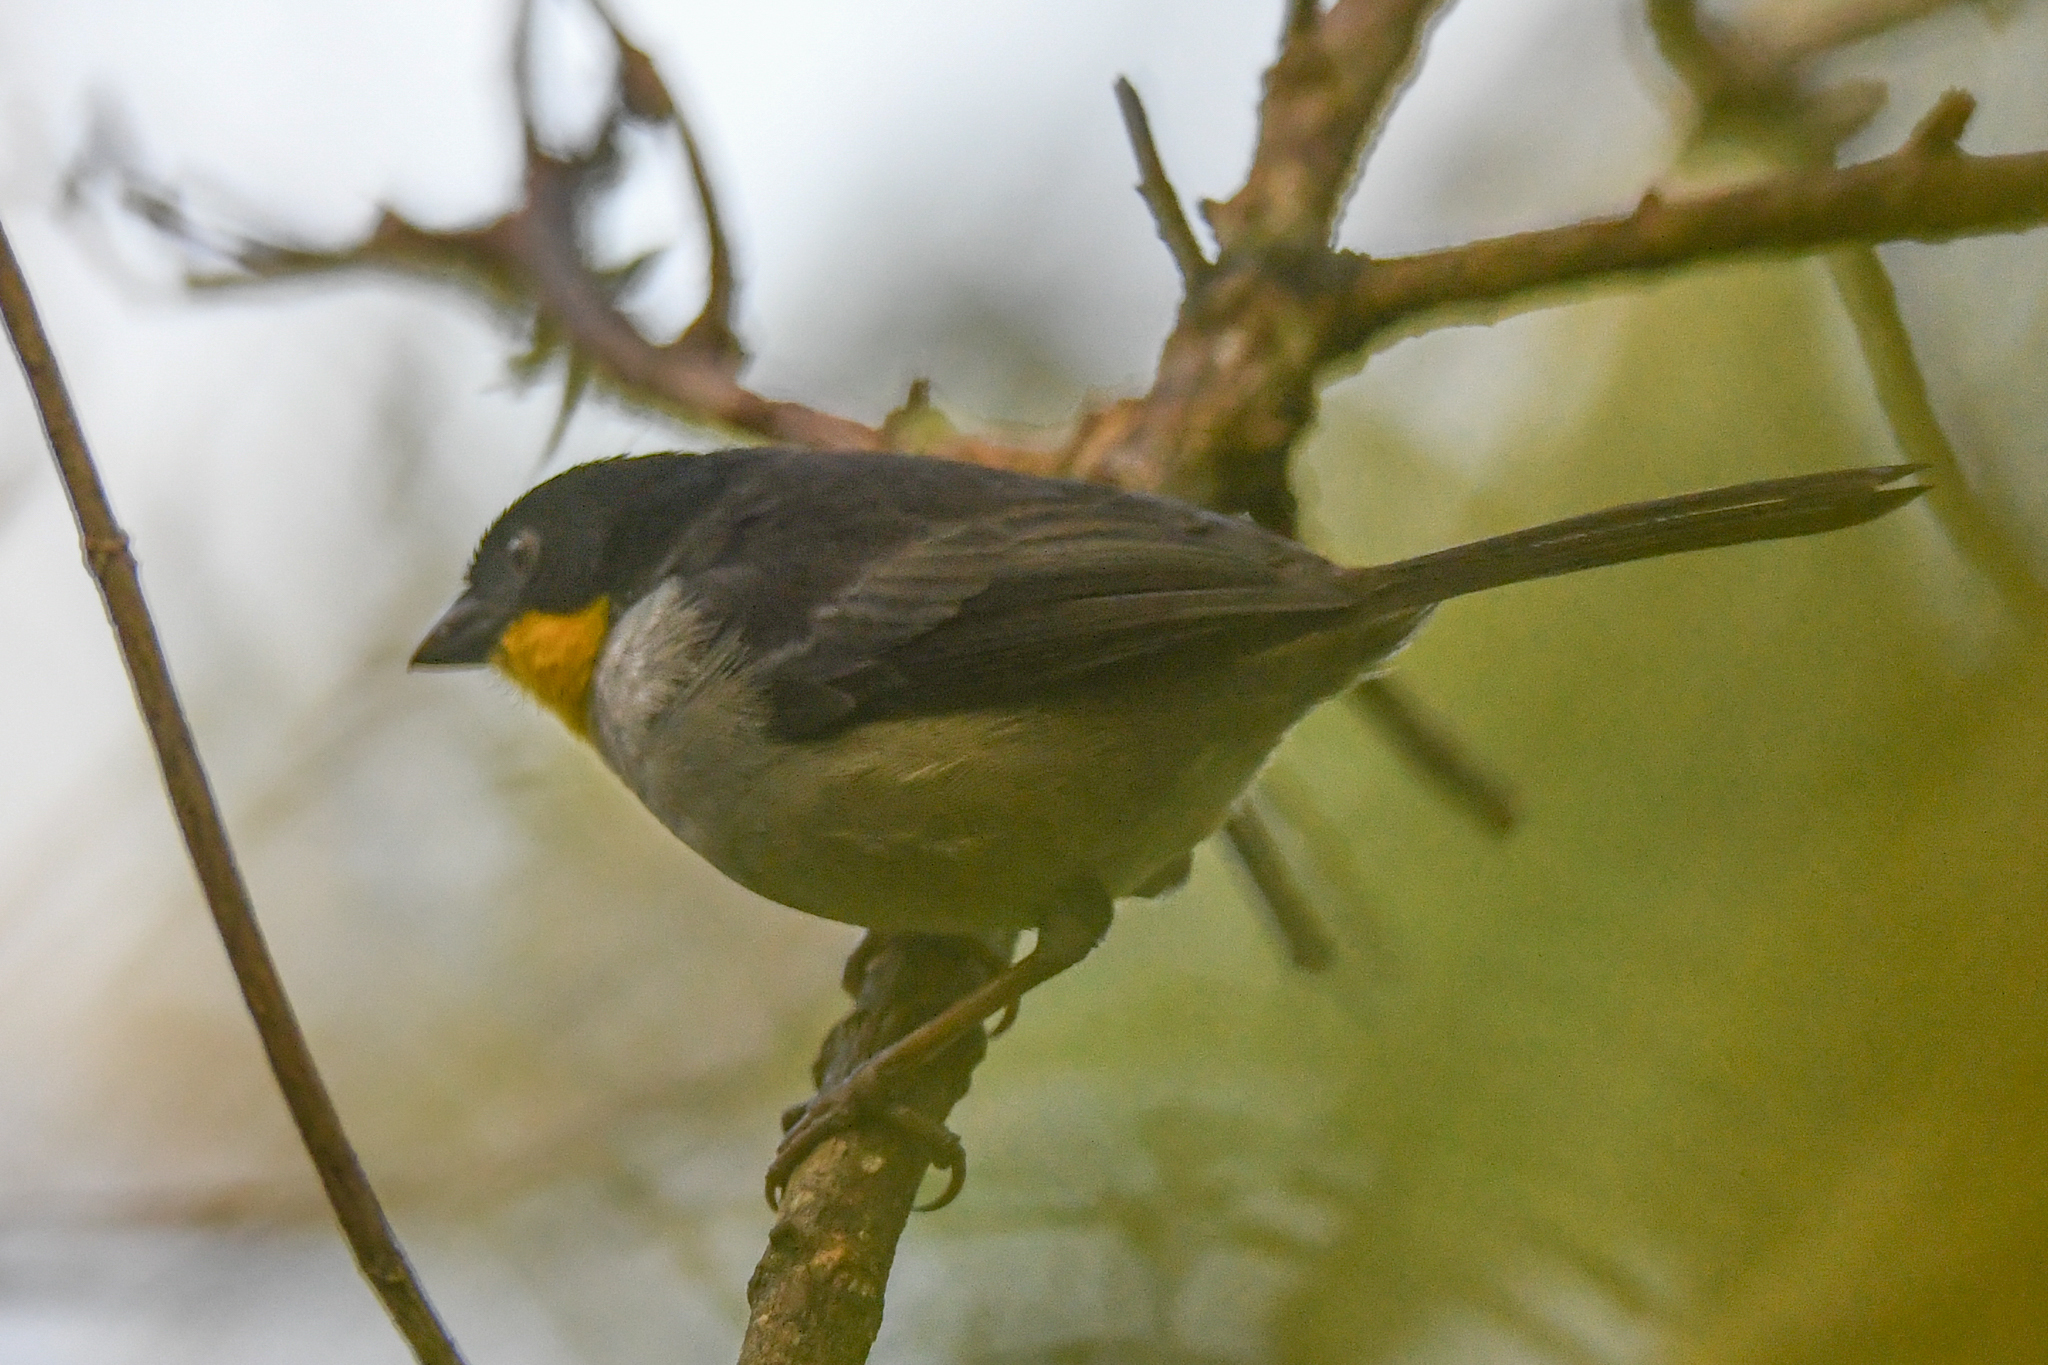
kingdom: Animalia
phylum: Chordata
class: Aves
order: Passeriformes
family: Passerellidae
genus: Atlapetes
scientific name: Atlapetes albinucha
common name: White-naped brush-finch
